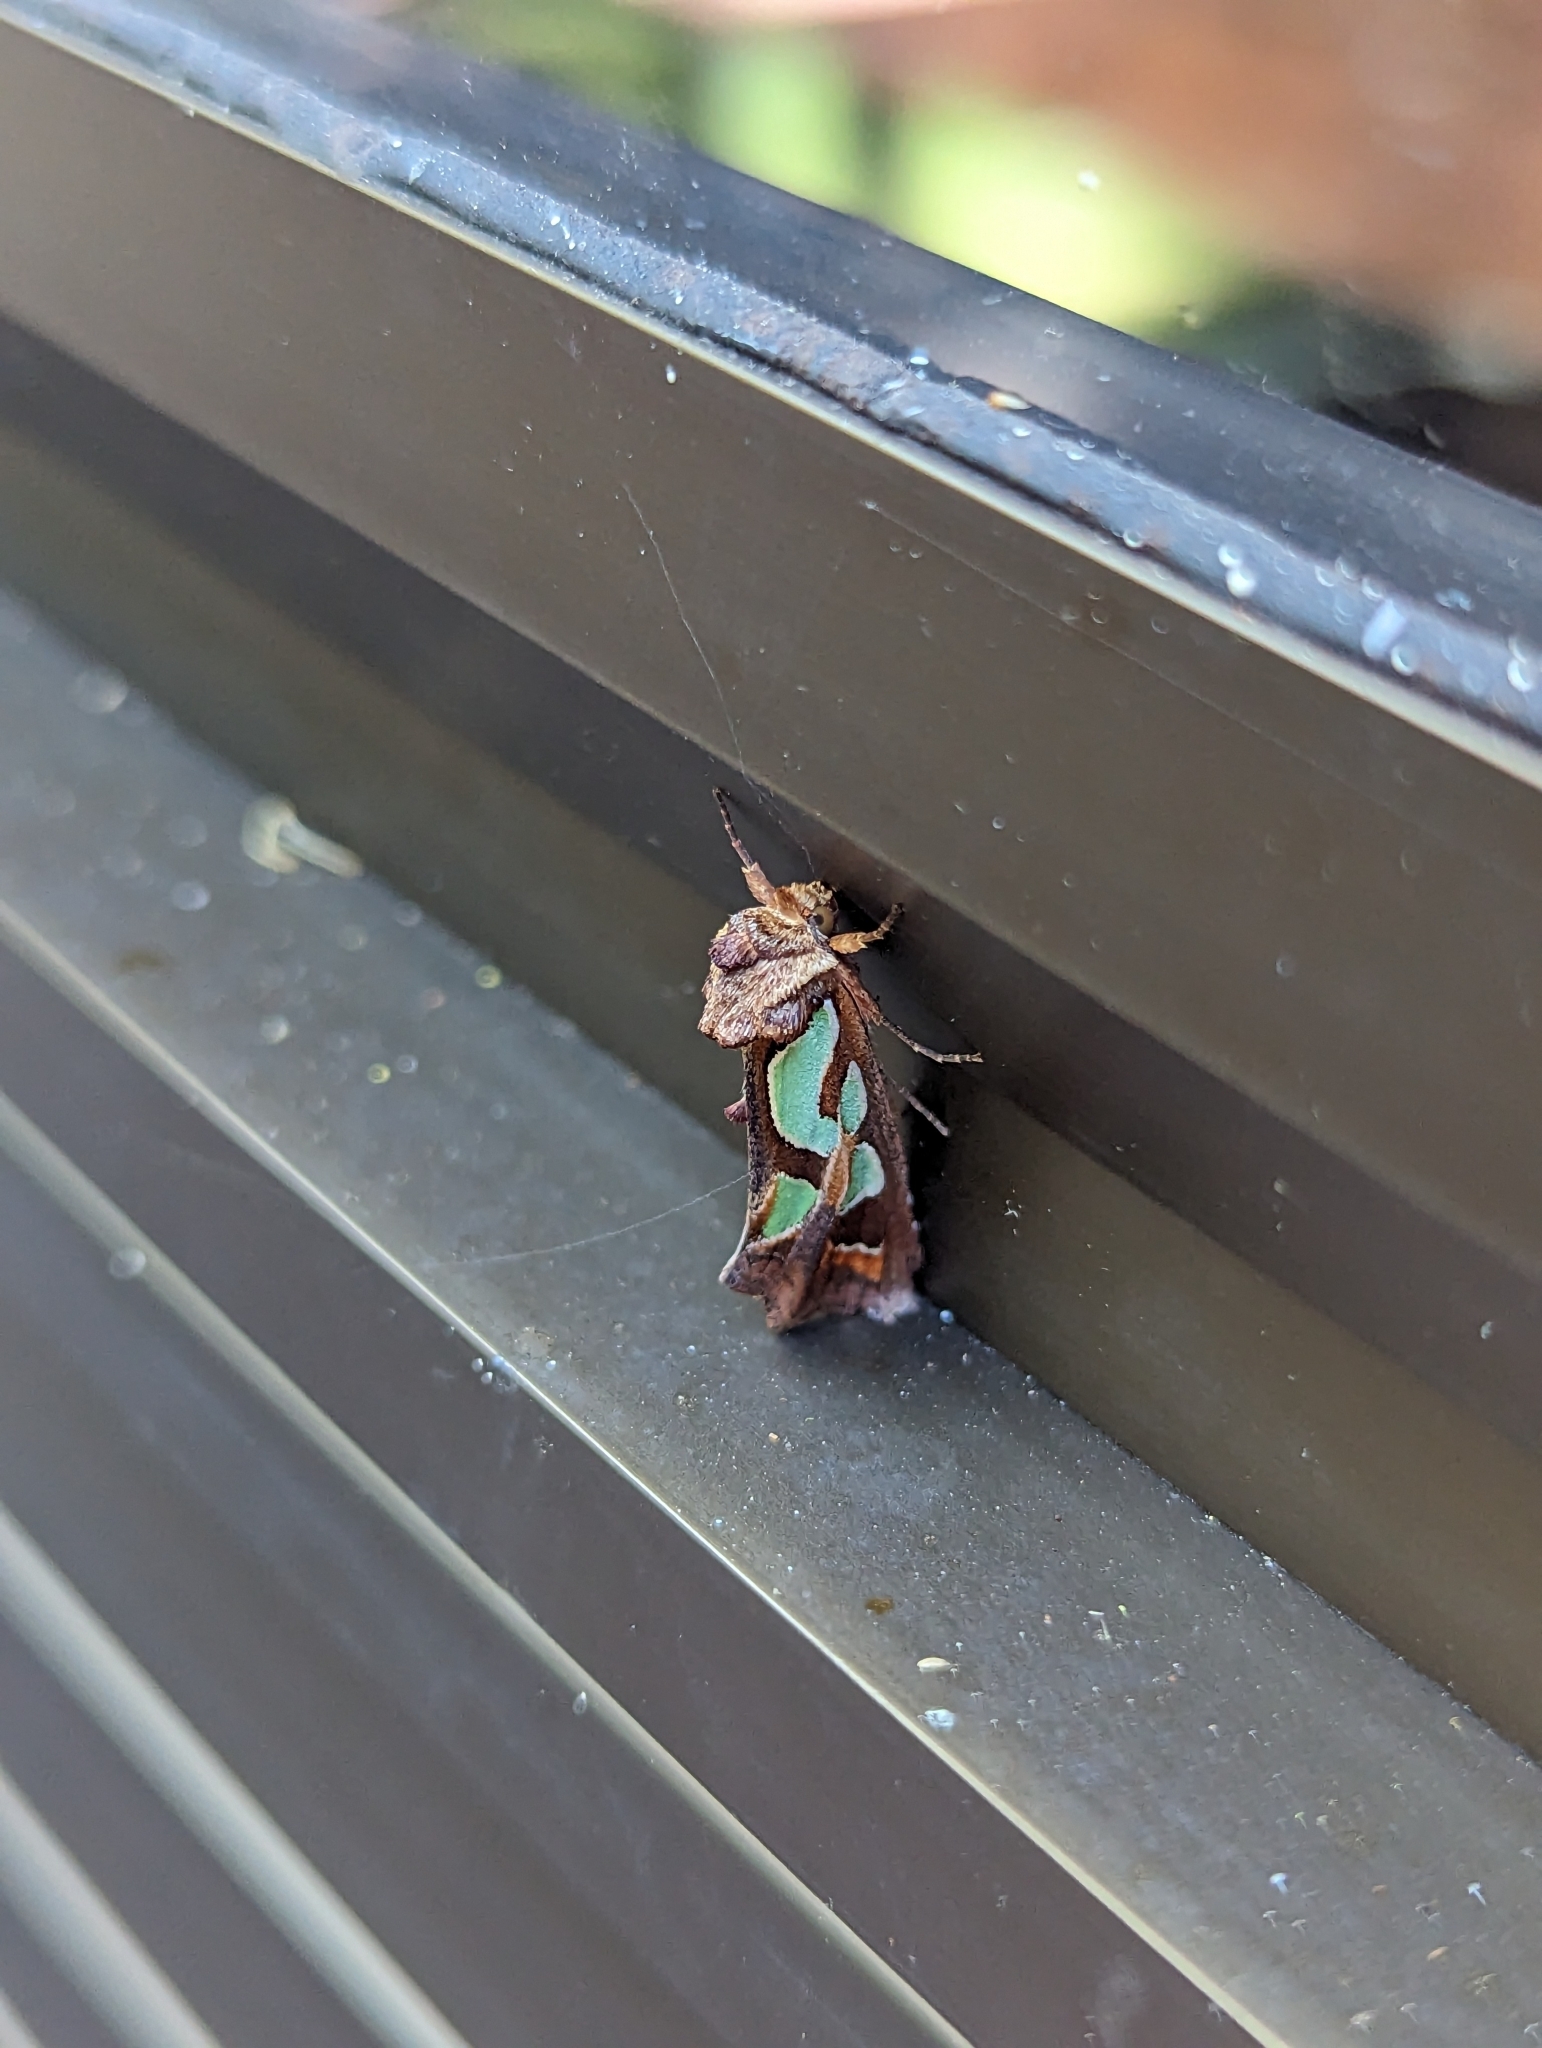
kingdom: Animalia
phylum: Arthropoda
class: Insecta
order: Lepidoptera
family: Noctuidae
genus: Cosmodes
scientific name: Cosmodes elegans
